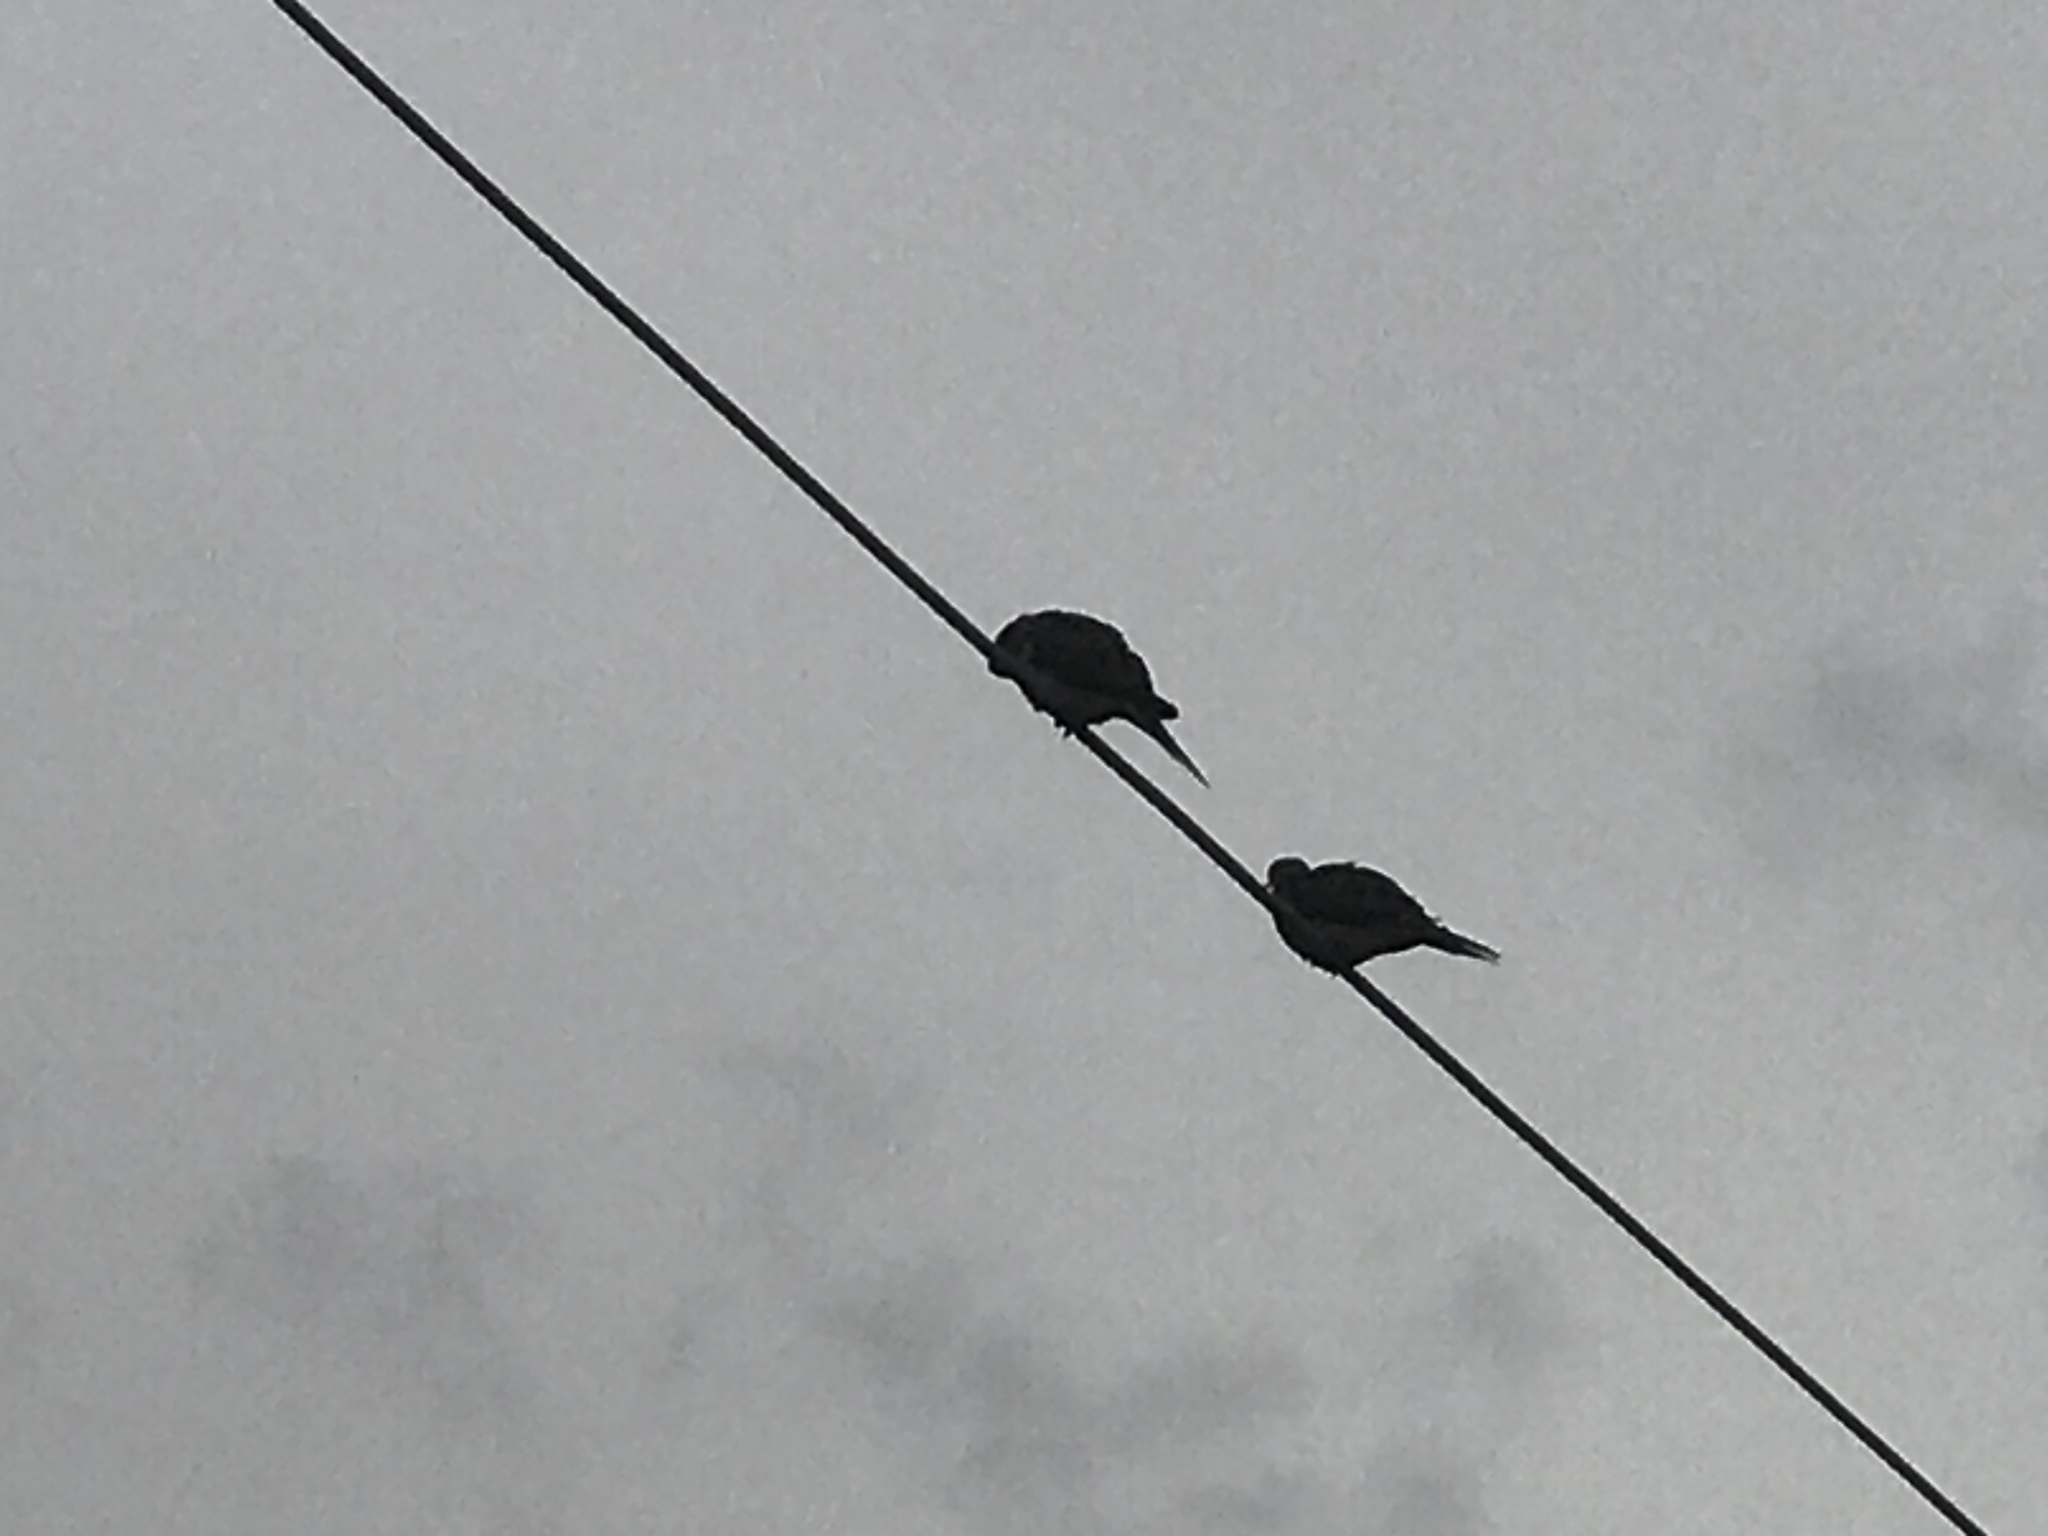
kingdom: Animalia
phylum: Chordata
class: Aves
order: Columbiformes
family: Columbidae
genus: Zenaida
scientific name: Zenaida macroura
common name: Mourning dove
